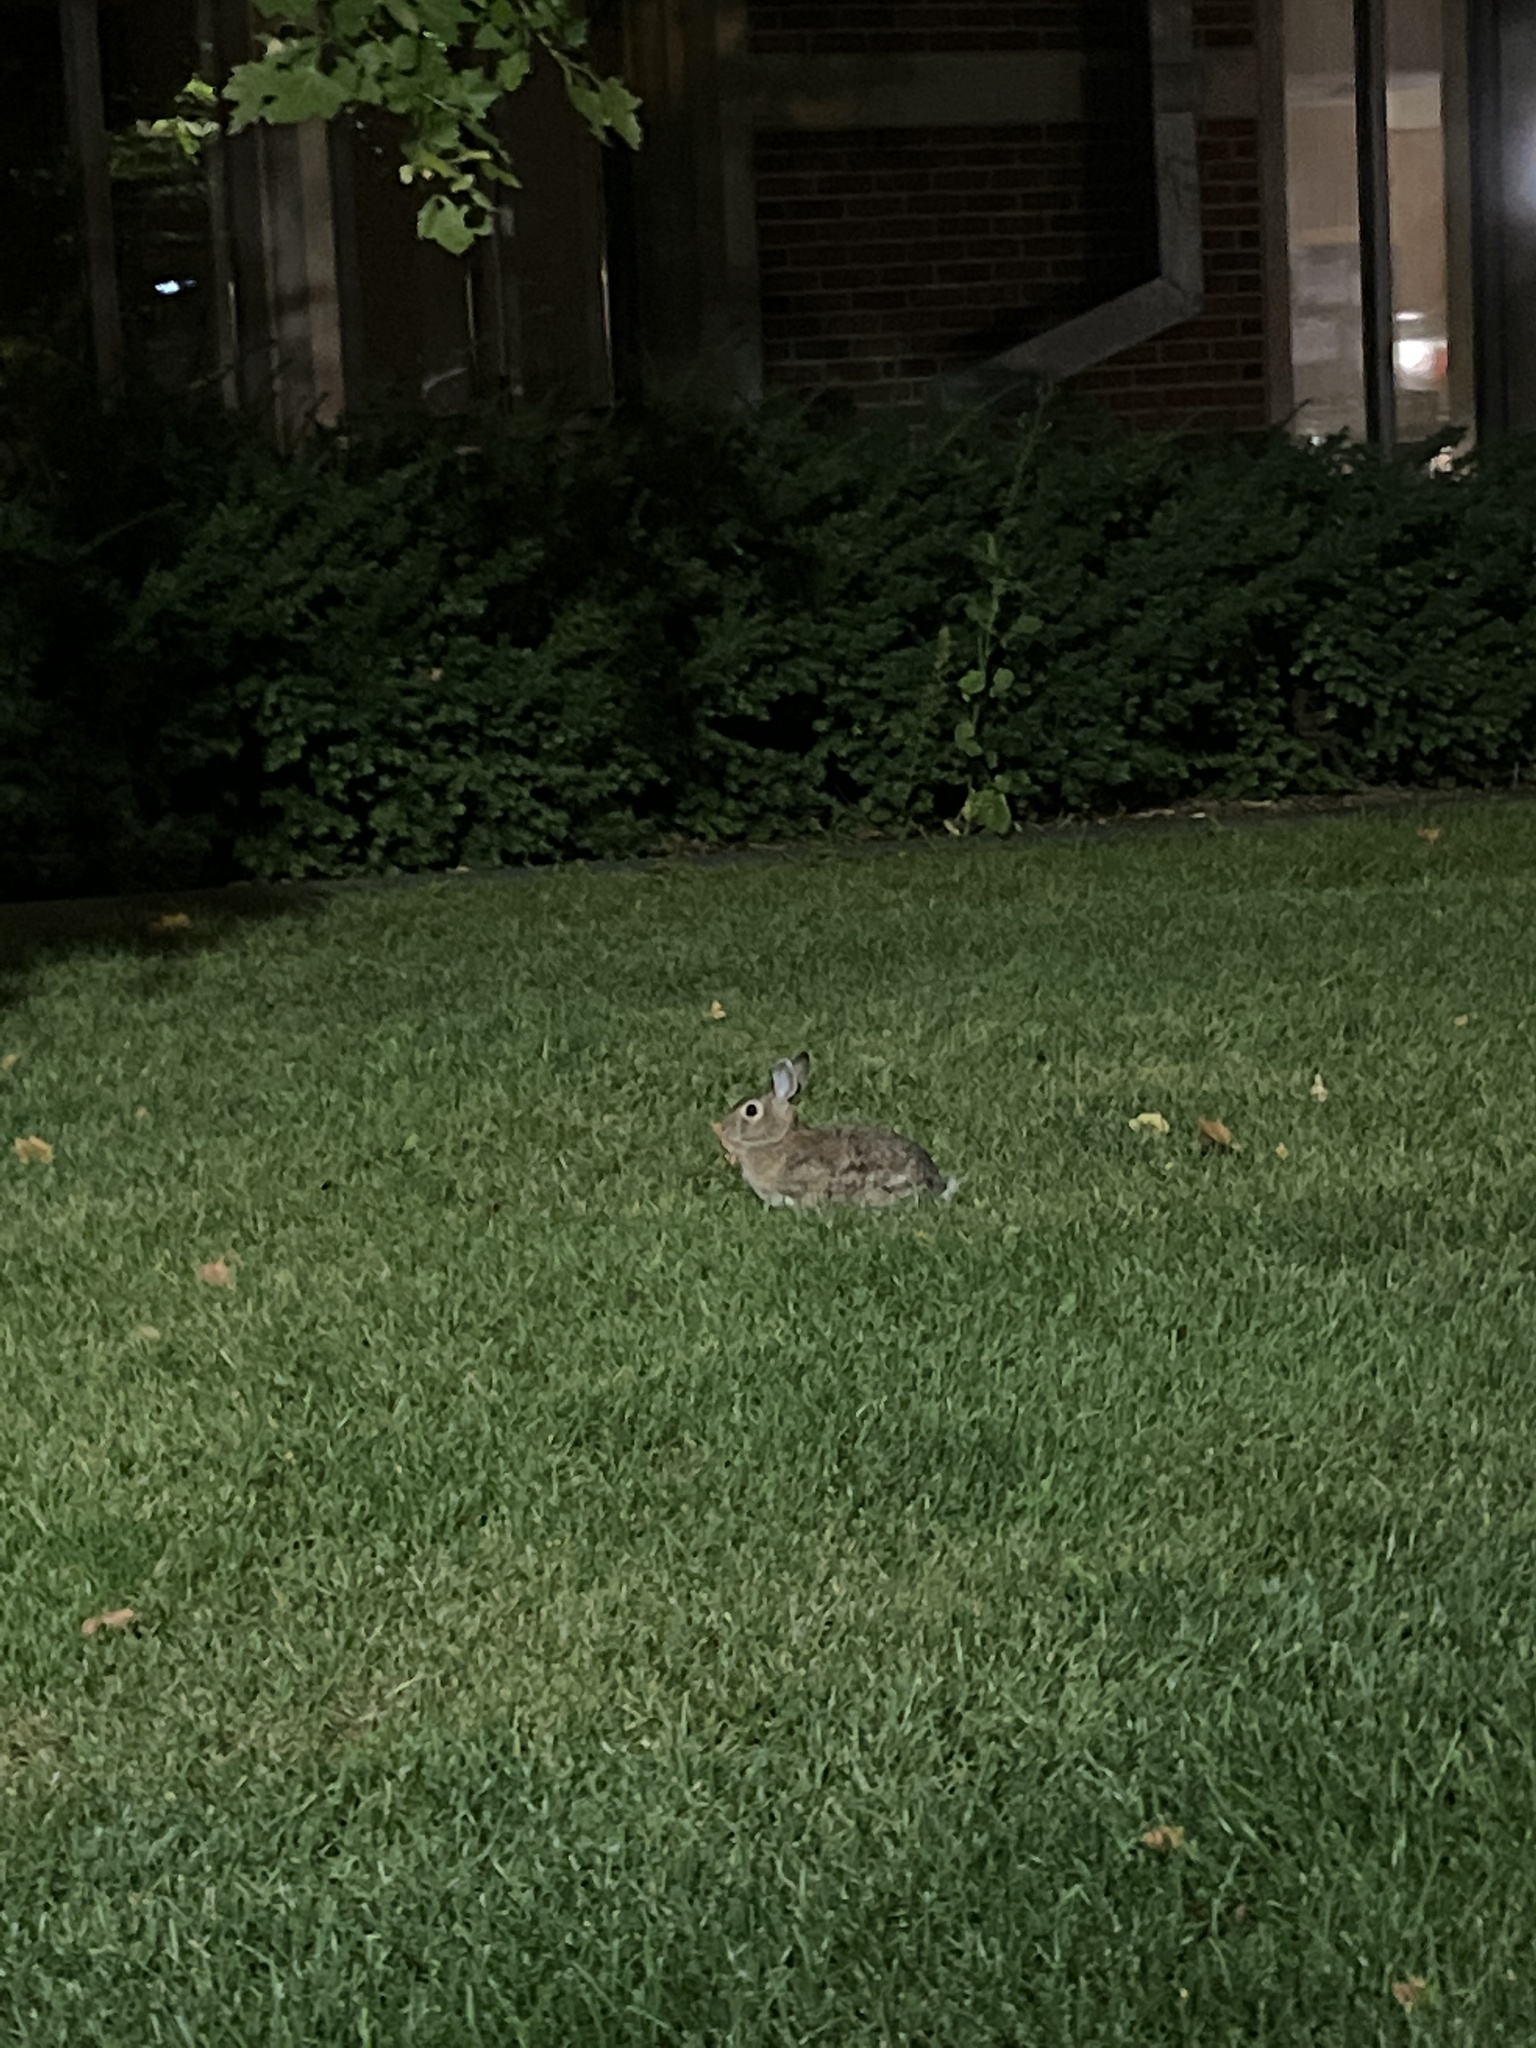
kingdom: Animalia
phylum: Chordata
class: Mammalia
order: Lagomorpha
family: Leporidae
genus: Sylvilagus
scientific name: Sylvilagus floridanus
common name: Eastern cottontail
